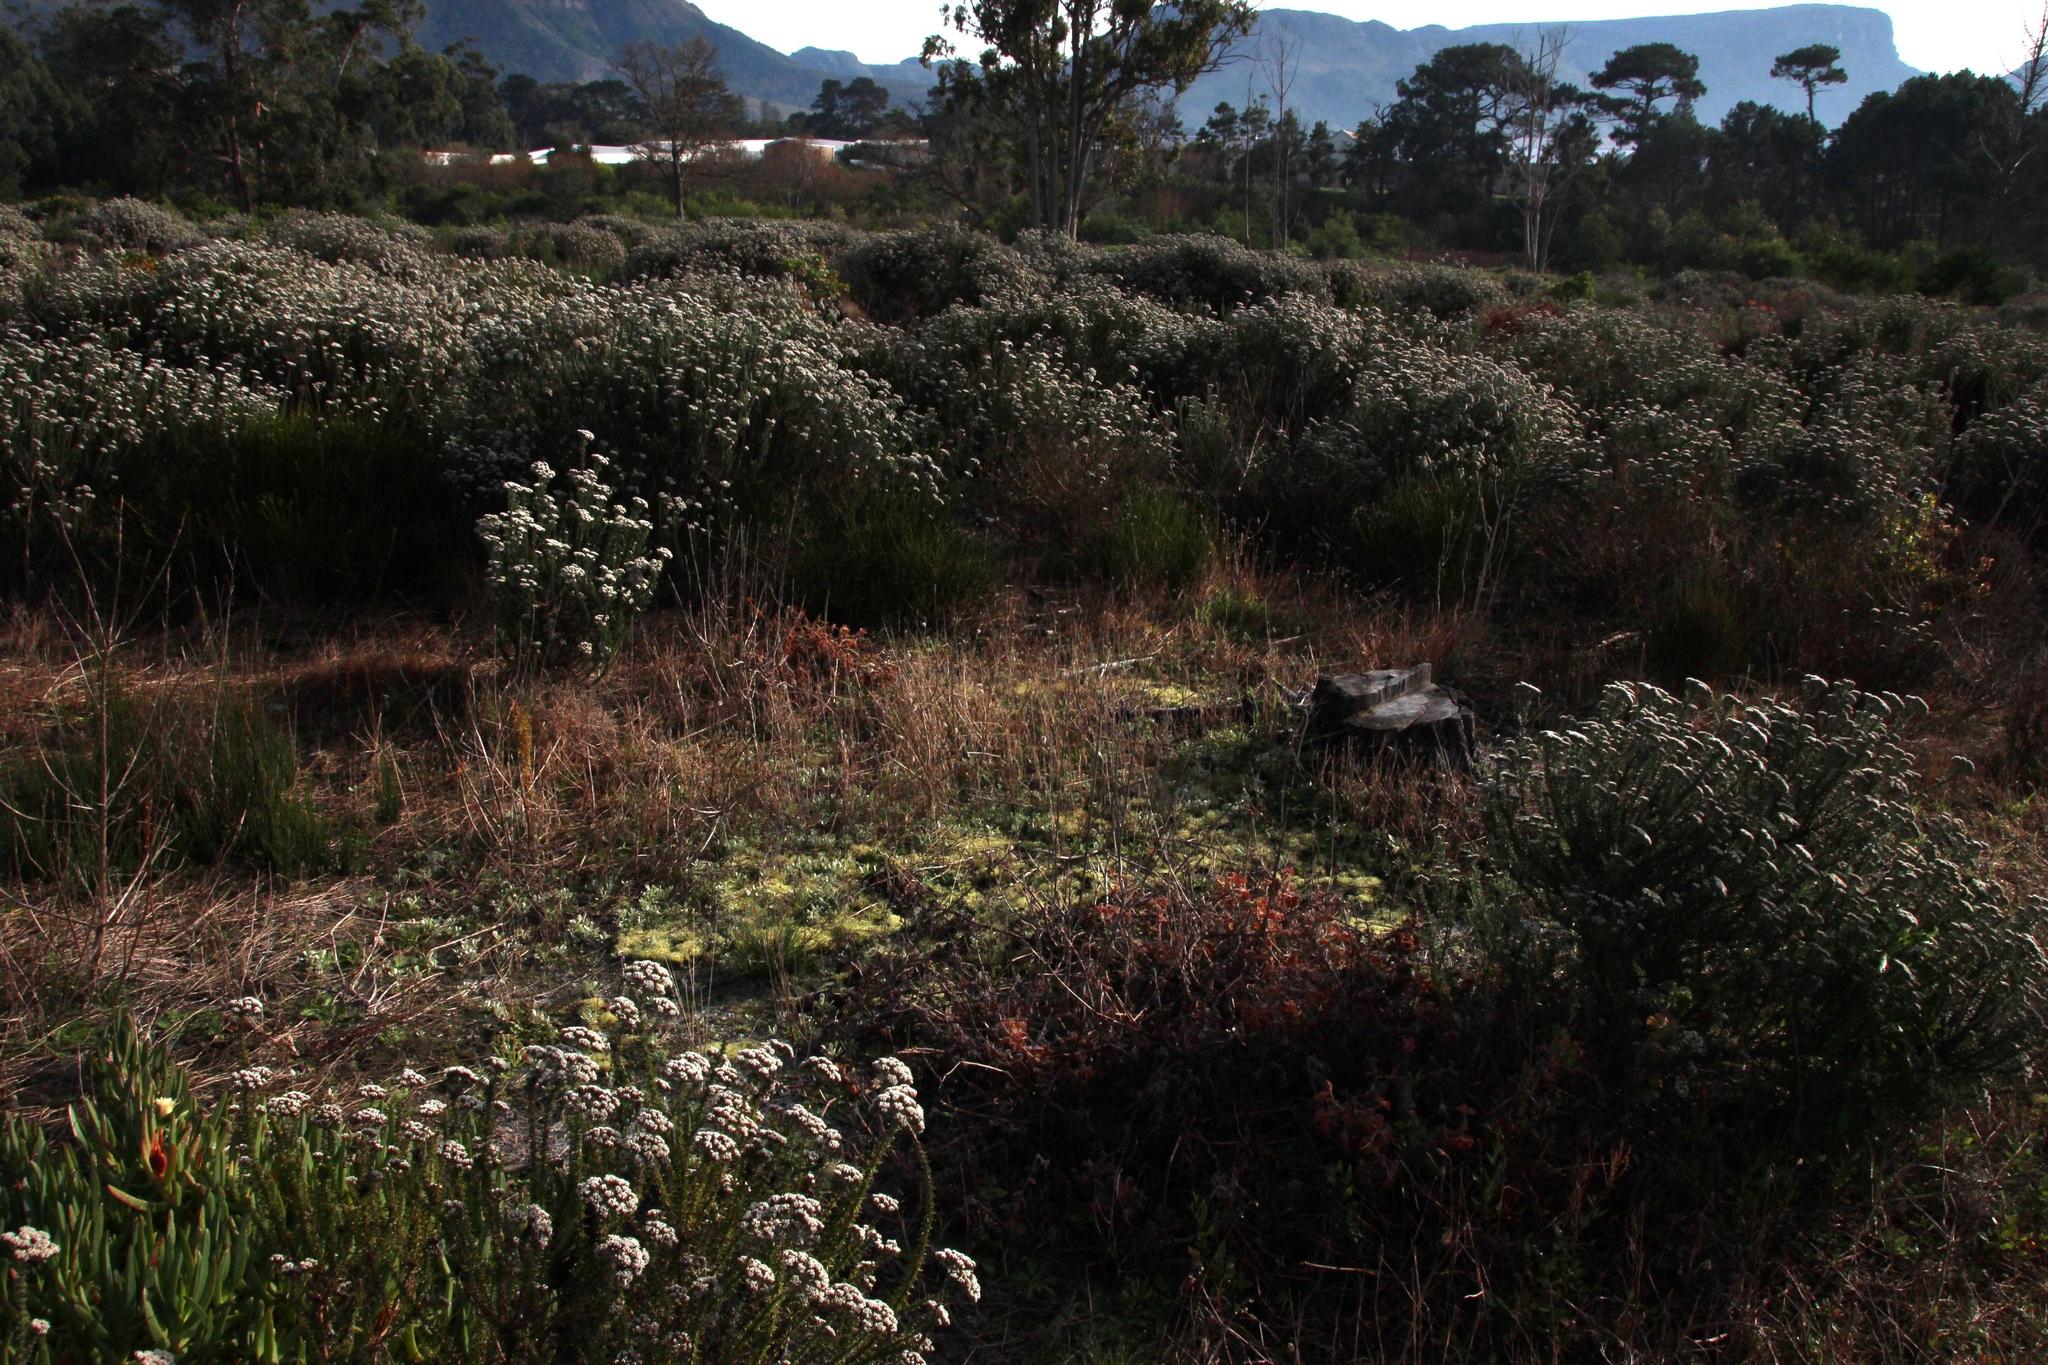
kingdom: Plantae
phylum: Bryophyta
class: Bryopsida
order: Funariales
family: Funariaceae
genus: Funaria
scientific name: Funaria hygrometrica
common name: Common cord moss
